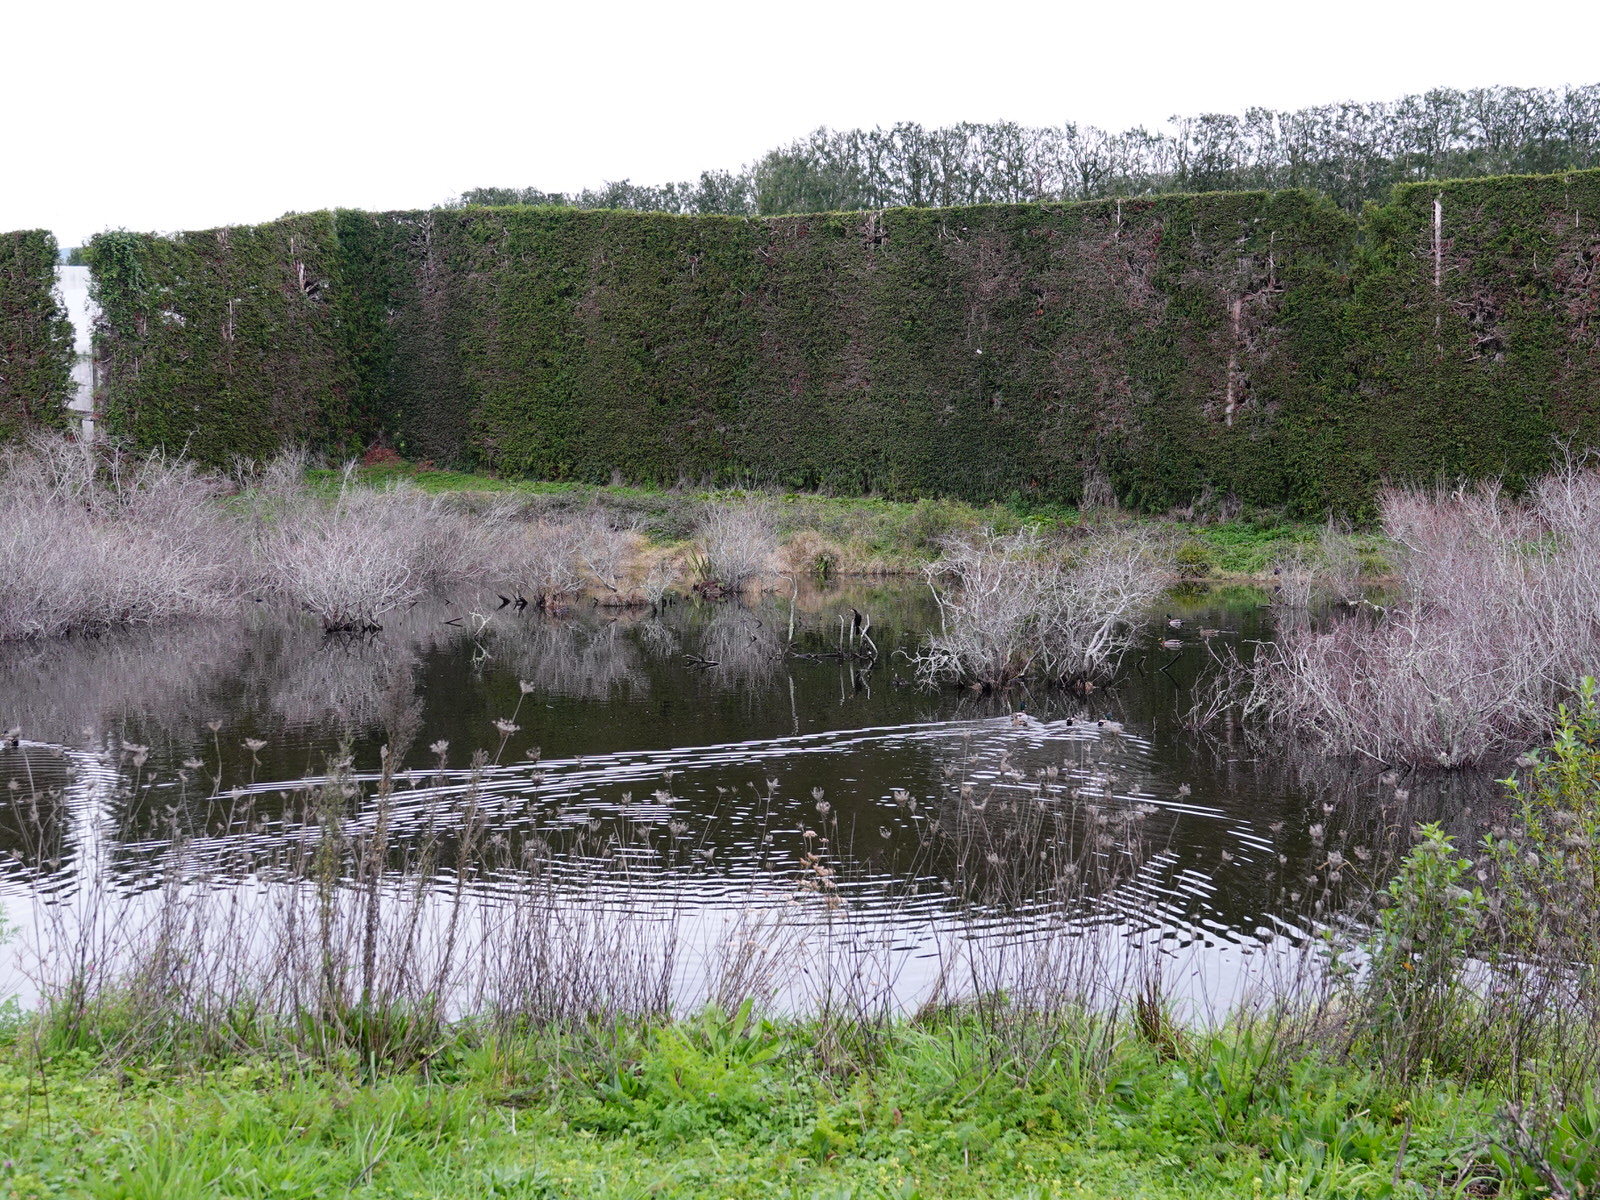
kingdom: Animalia
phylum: Chordata
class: Aves
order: Suliformes
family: Phalacrocoracidae
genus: Microcarbo
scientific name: Microcarbo melanoleucos
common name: Little pied cormorant
